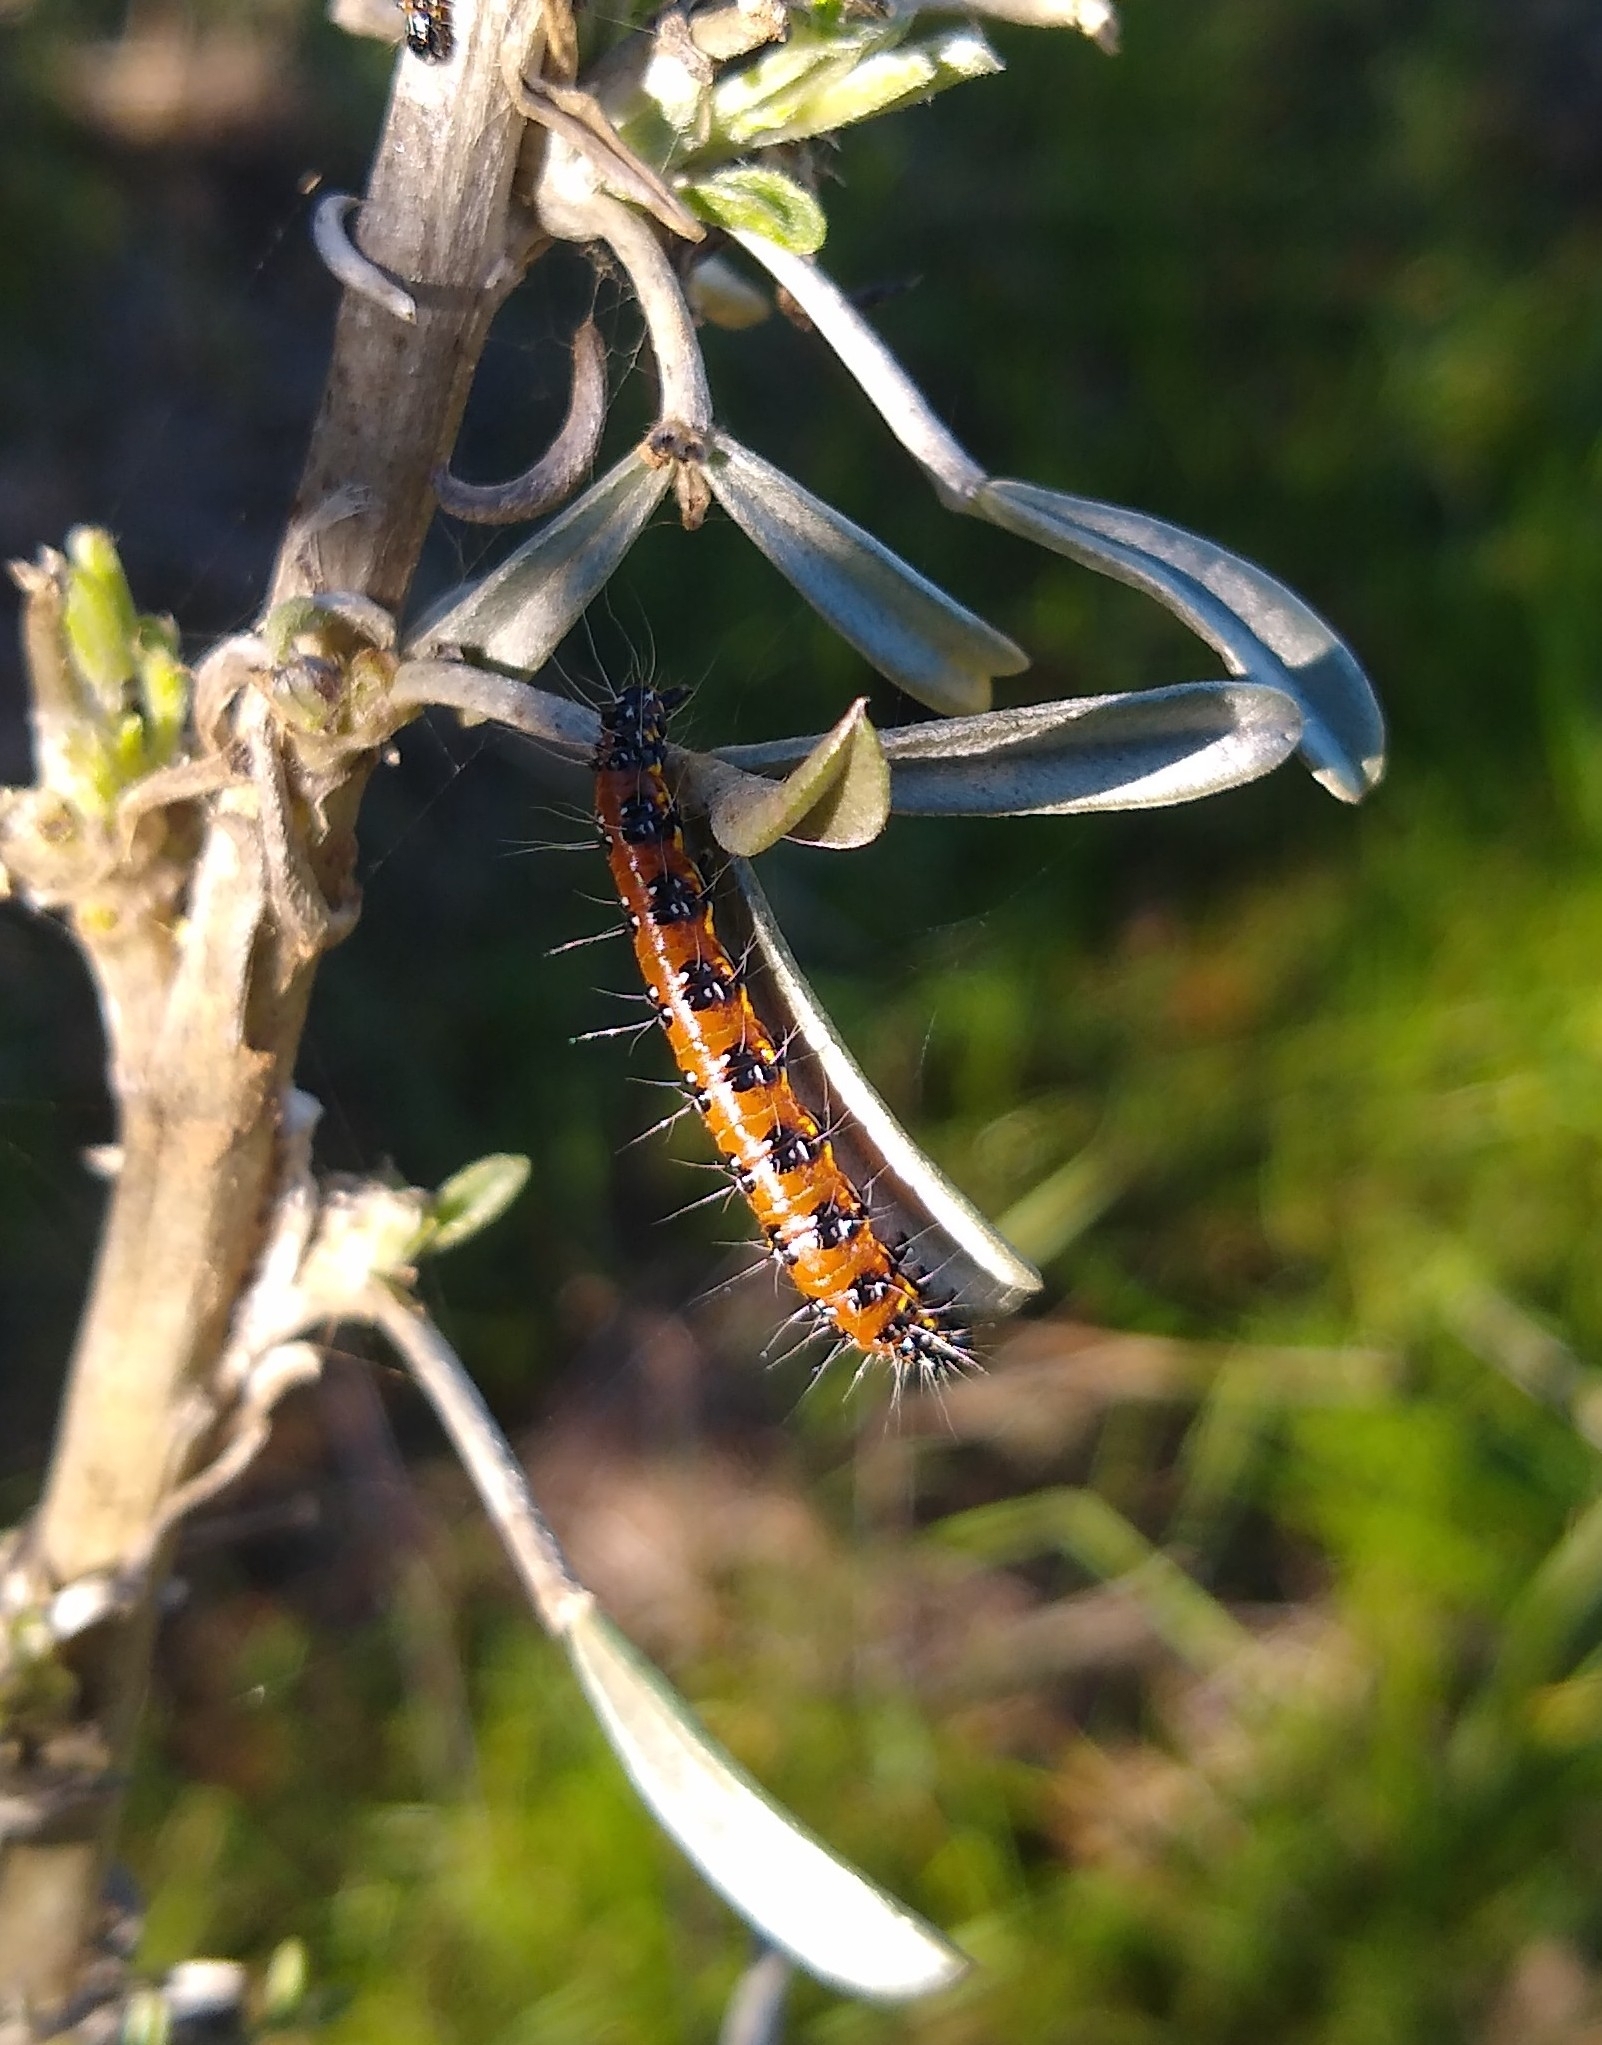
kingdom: Animalia
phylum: Arthropoda
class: Insecta
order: Lepidoptera
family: Crambidae
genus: Uresiphita
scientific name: Uresiphita reversalis
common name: Genista broom moth
